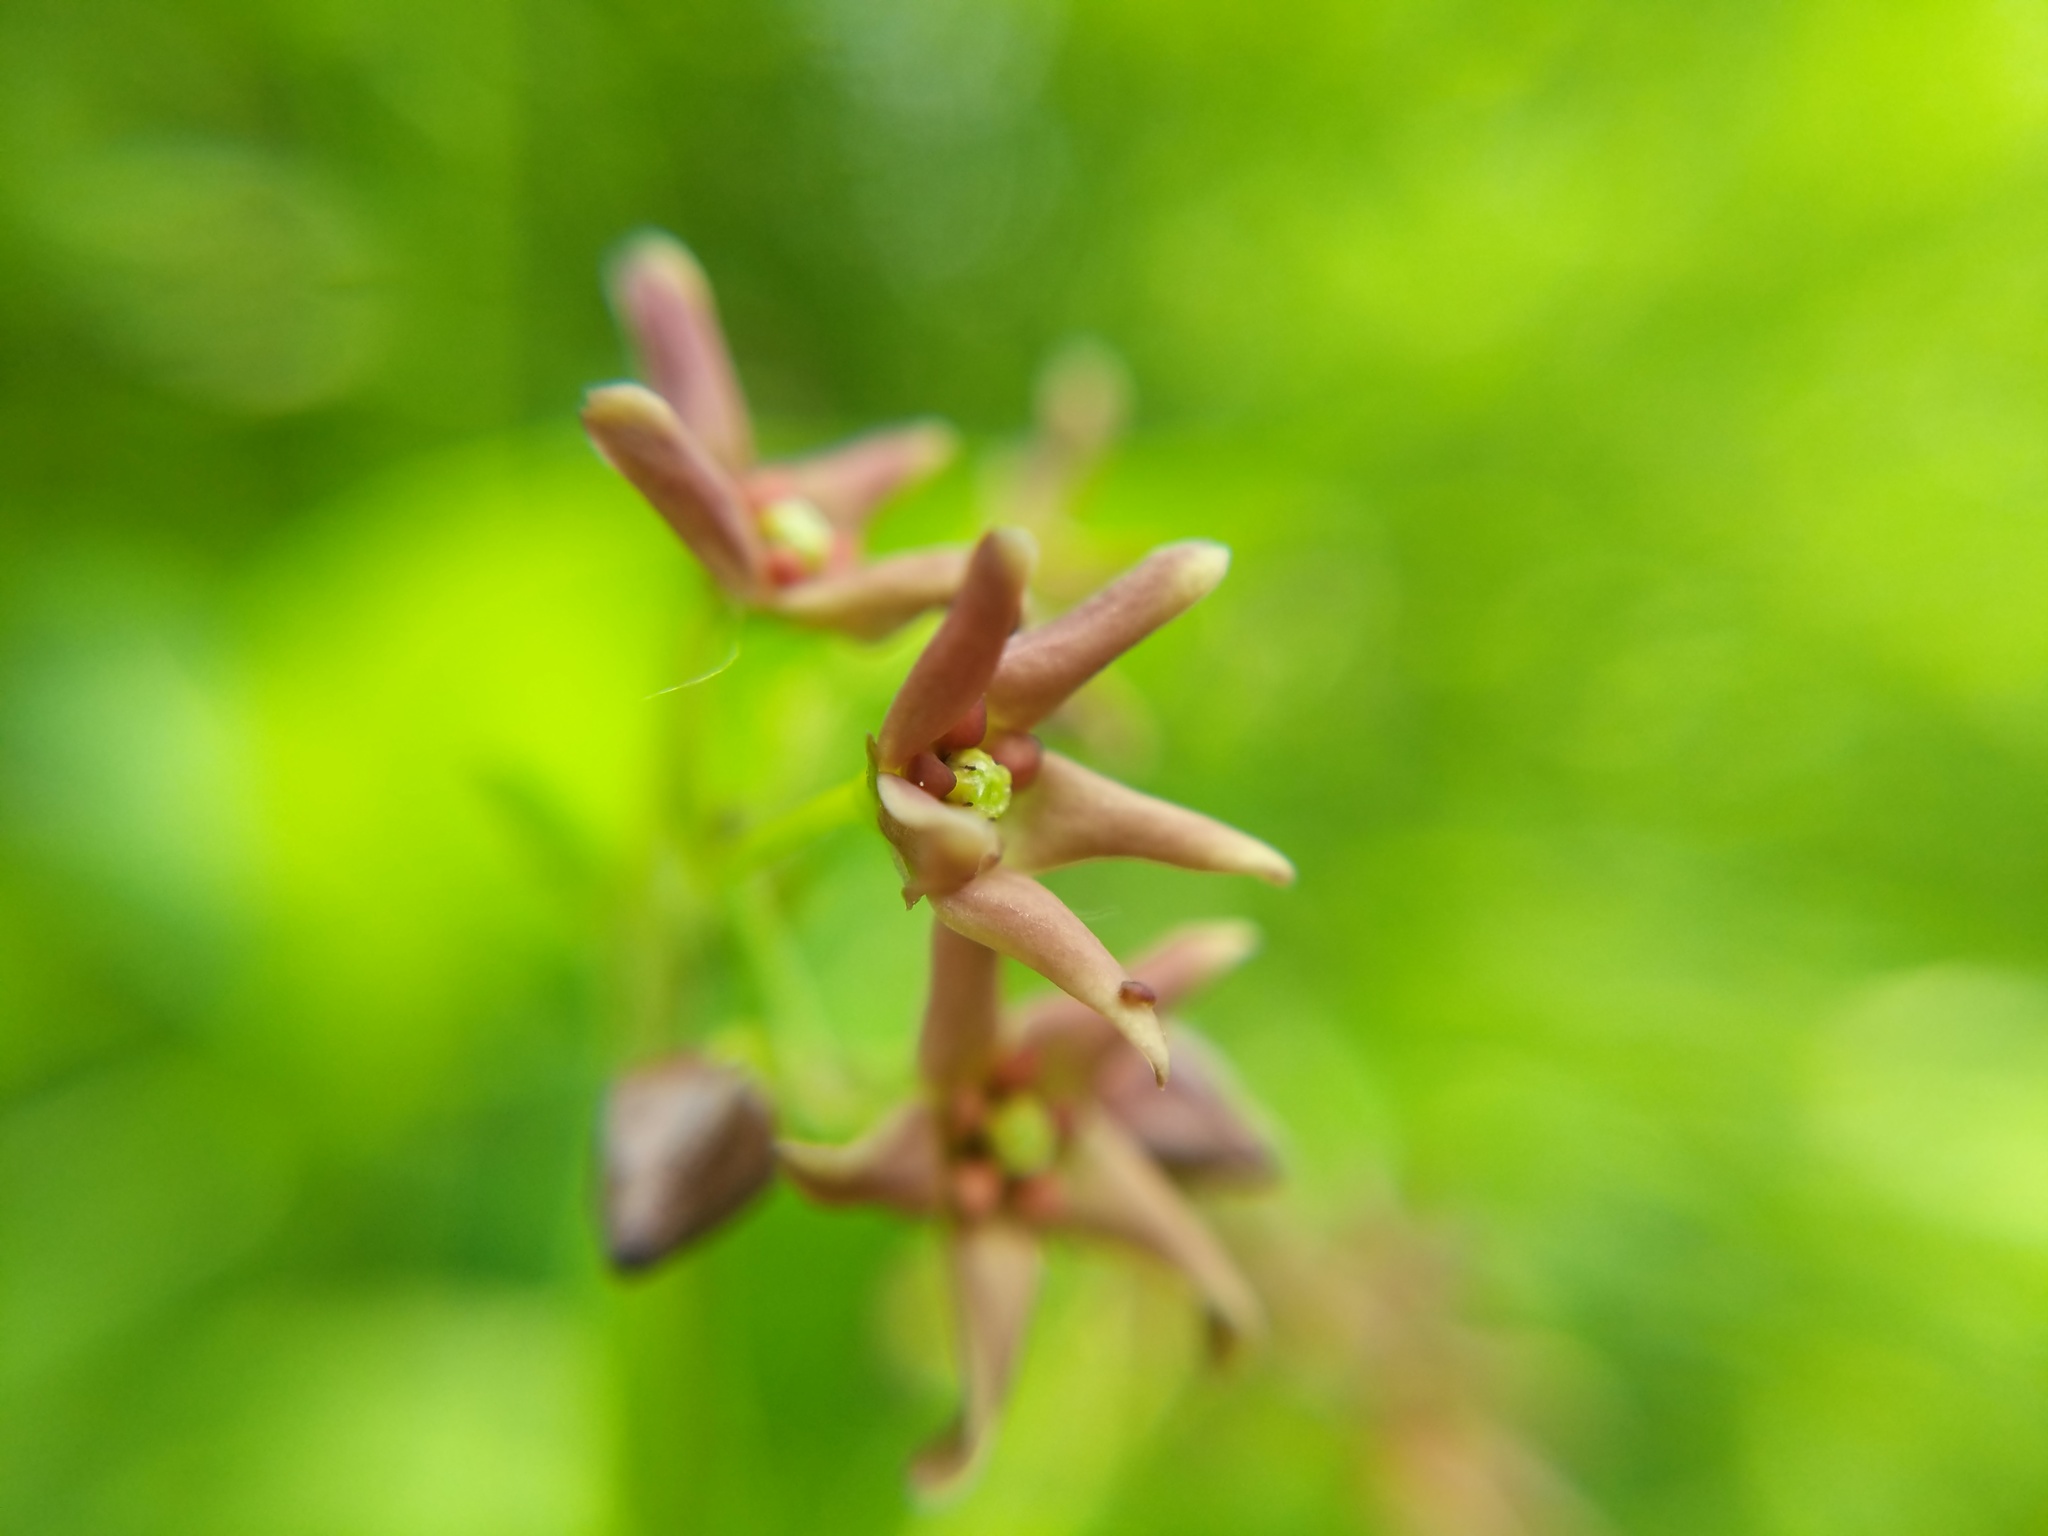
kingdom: Plantae
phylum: Tracheophyta
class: Magnoliopsida
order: Gentianales
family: Apocynaceae
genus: Vincetoxicum
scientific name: Vincetoxicum rossicum
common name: Dog-strangling vine
